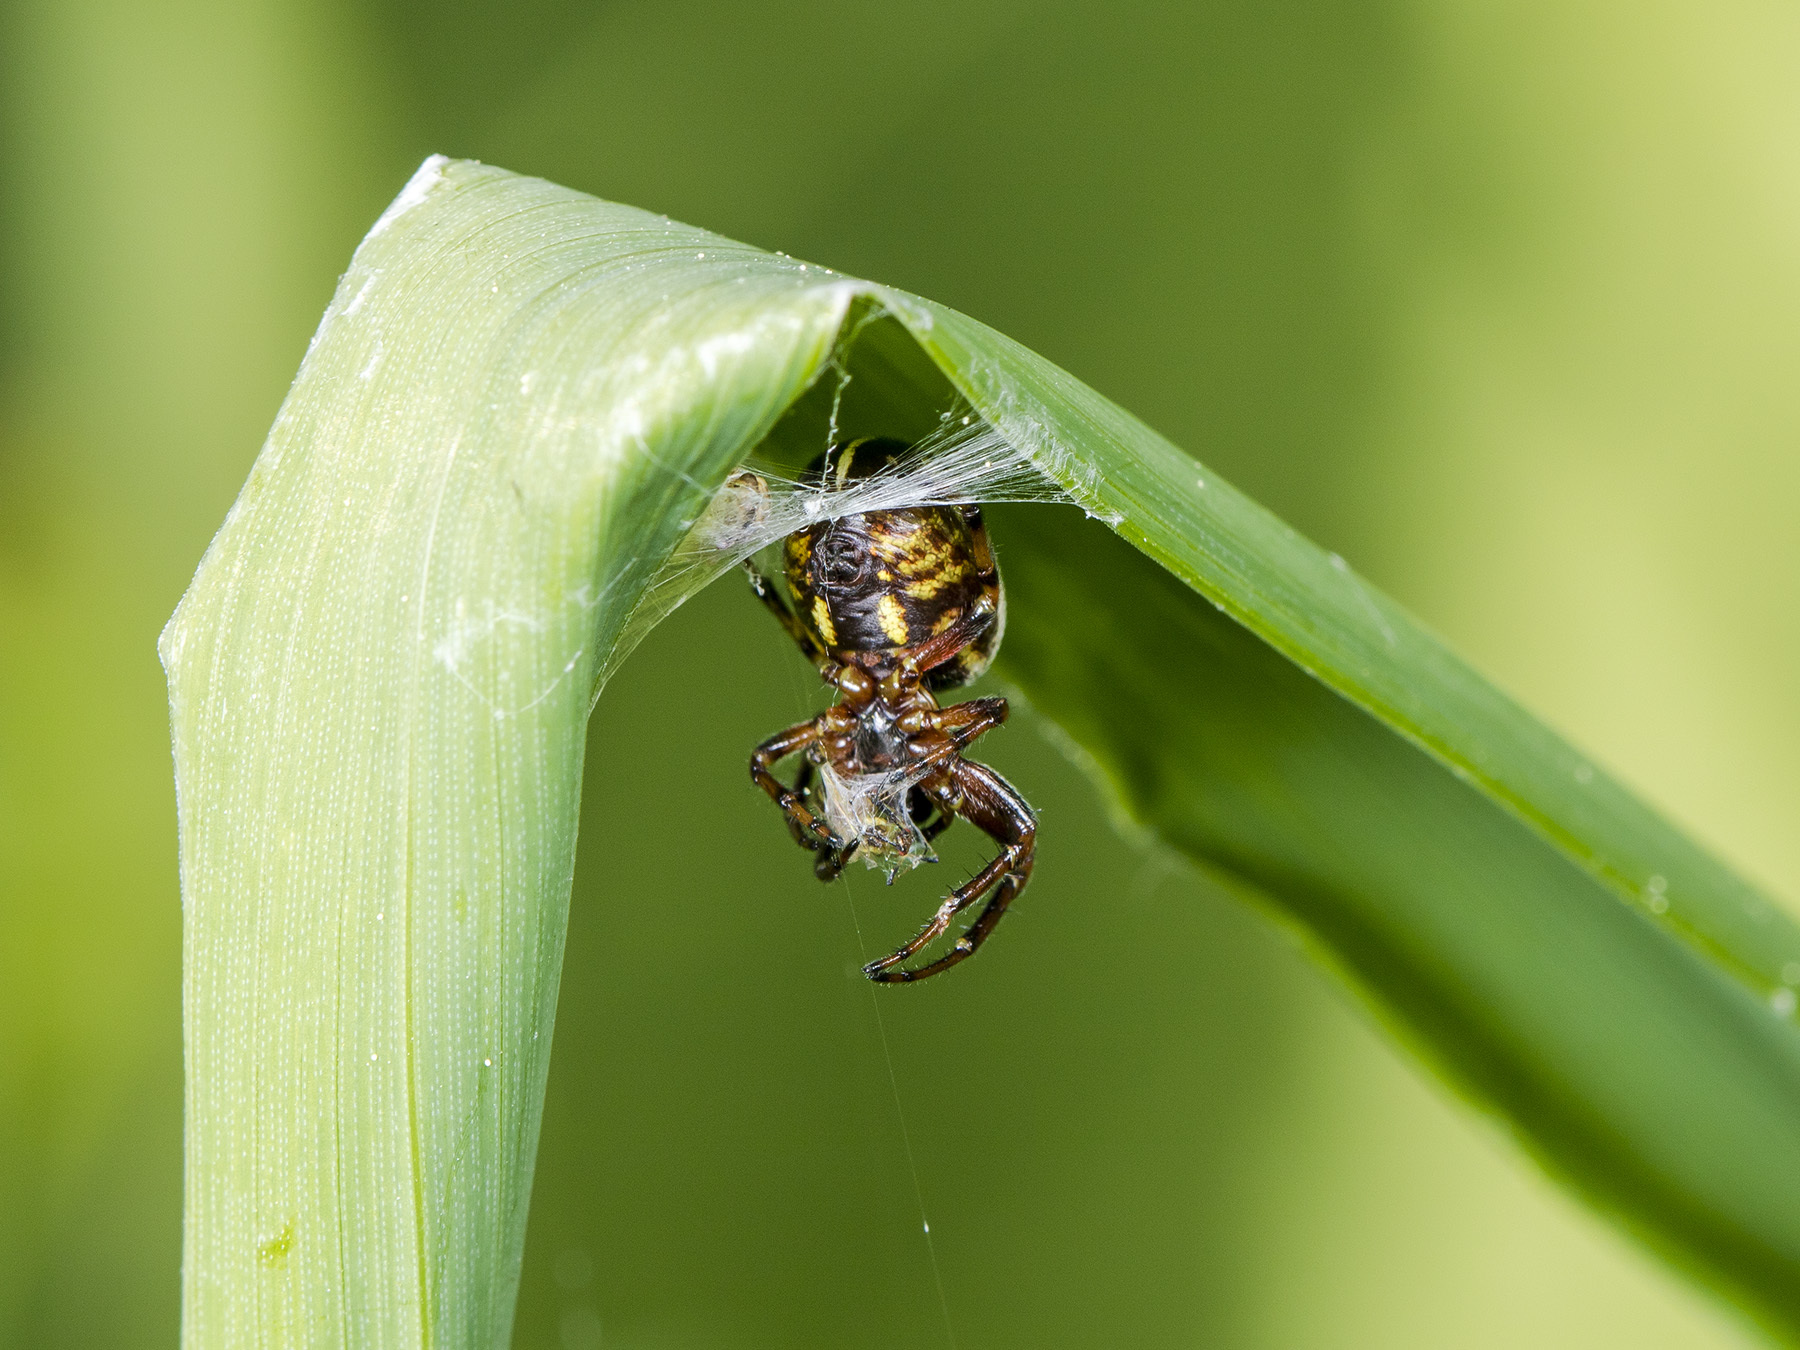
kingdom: Animalia
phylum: Arthropoda
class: Arachnida
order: Araneae
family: Araneidae
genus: Singa
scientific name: Singa hamata
